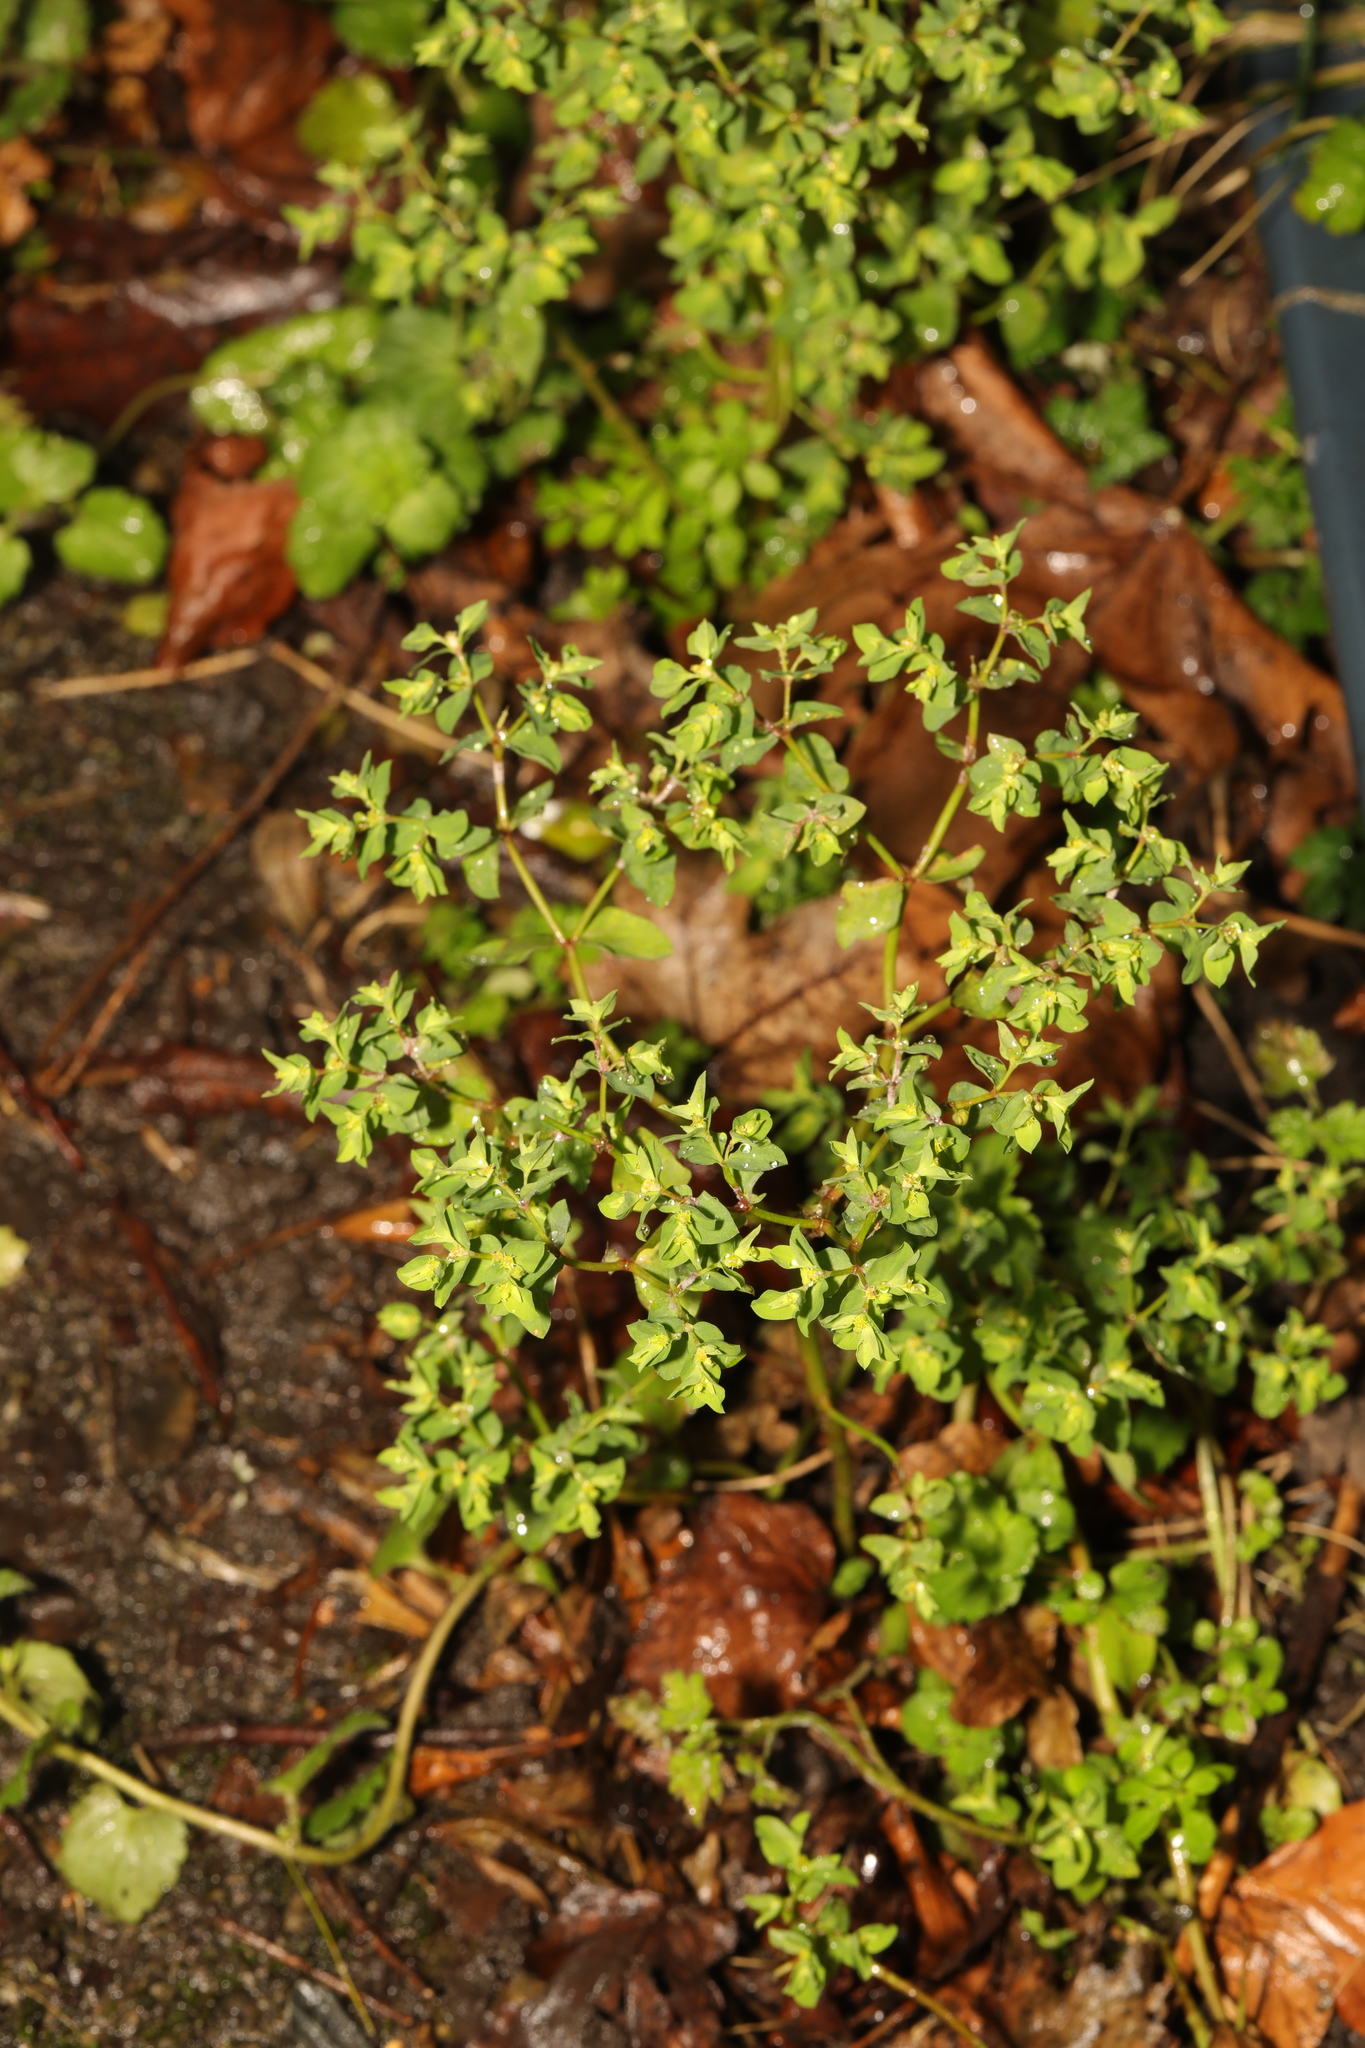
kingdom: Plantae
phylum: Tracheophyta
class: Magnoliopsida
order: Malpighiales
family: Euphorbiaceae
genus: Euphorbia
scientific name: Euphorbia peplus
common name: Petty spurge
